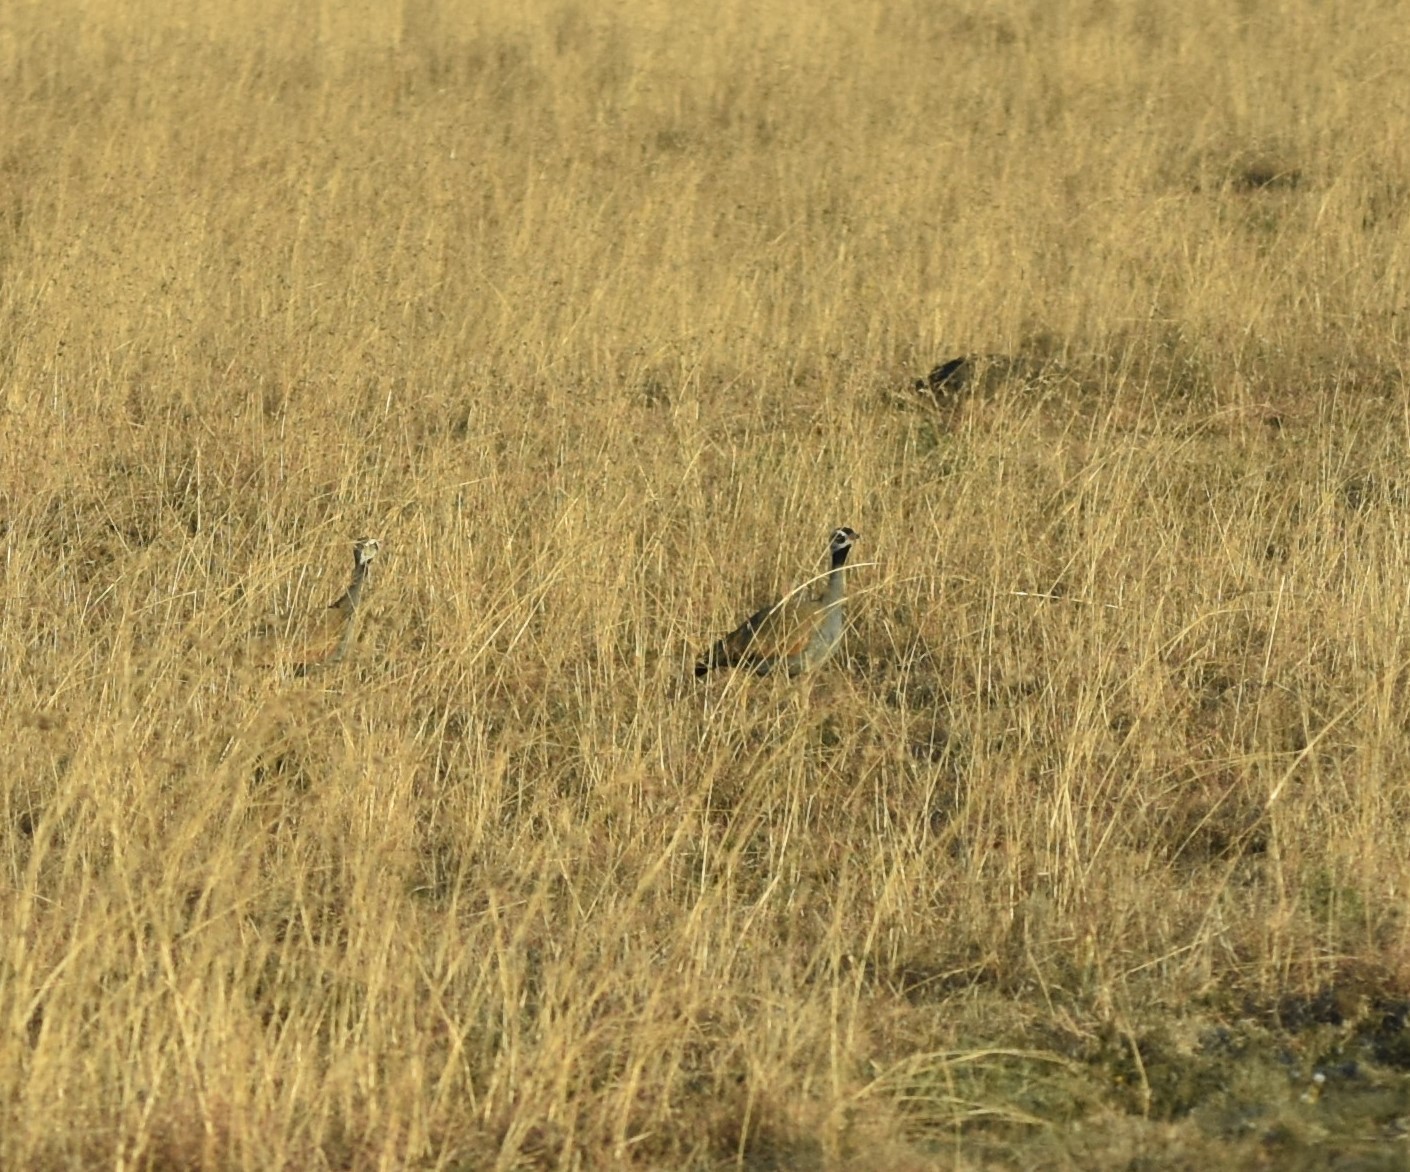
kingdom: Animalia
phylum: Chordata
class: Aves
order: Otidiformes
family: Otididae
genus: Eupodotis
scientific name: Eupodotis caerulescens
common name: Blue korhaan
